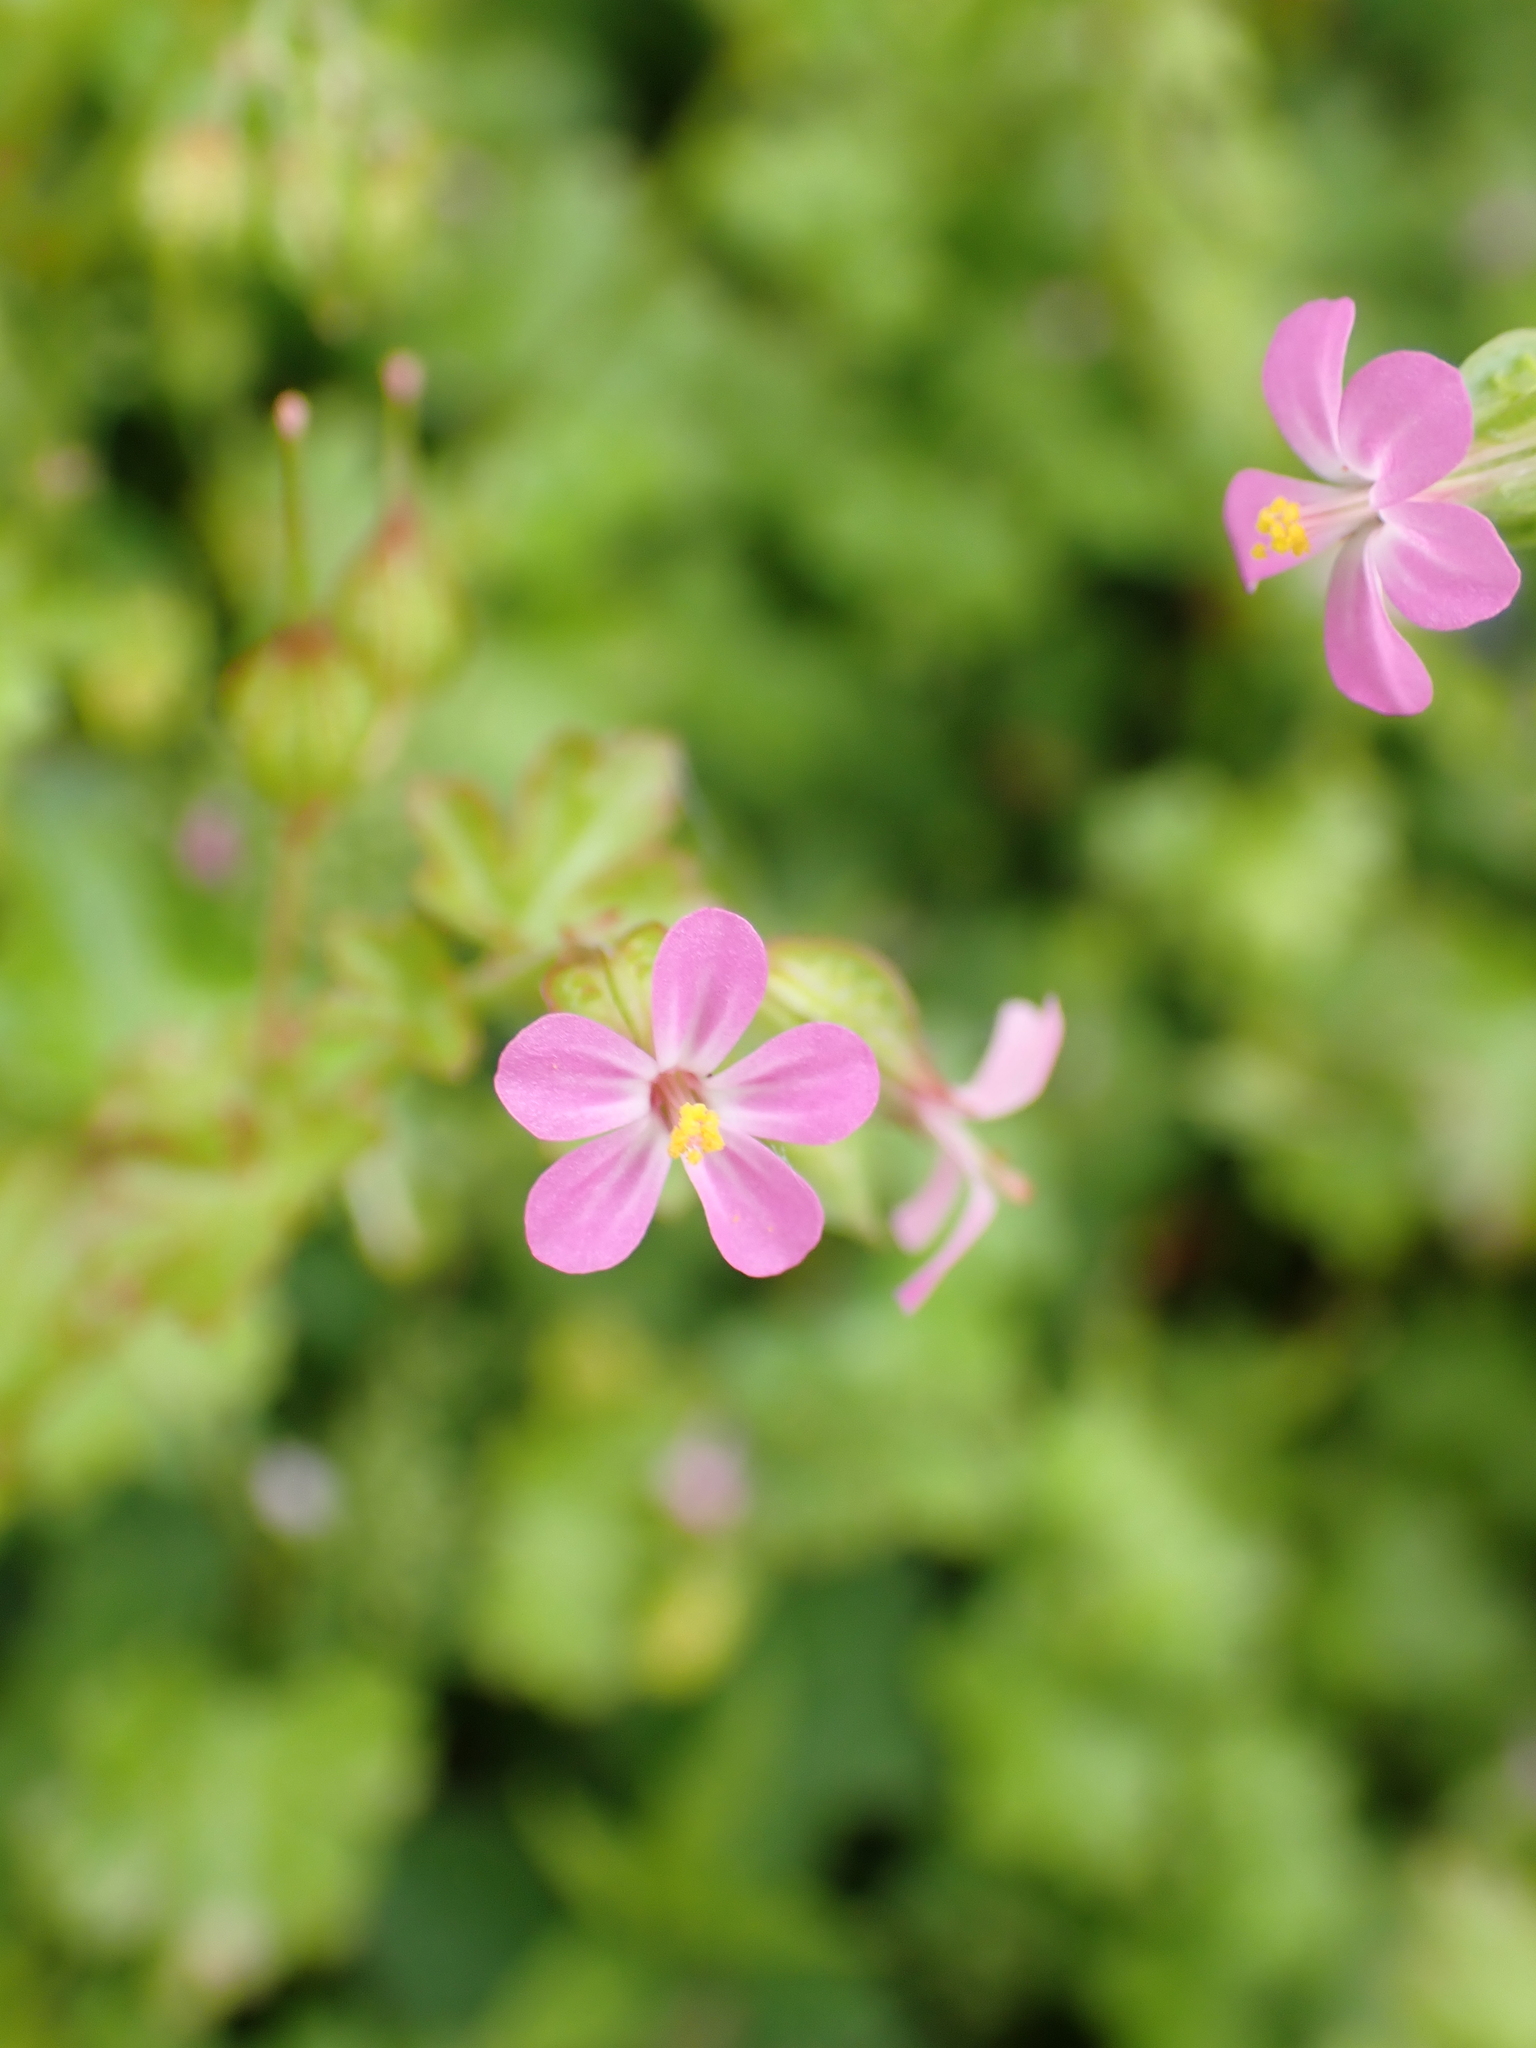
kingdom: Plantae
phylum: Tracheophyta
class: Magnoliopsida
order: Geraniales
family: Geraniaceae
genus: Geranium
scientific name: Geranium lucidum
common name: Shining crane's-bill
